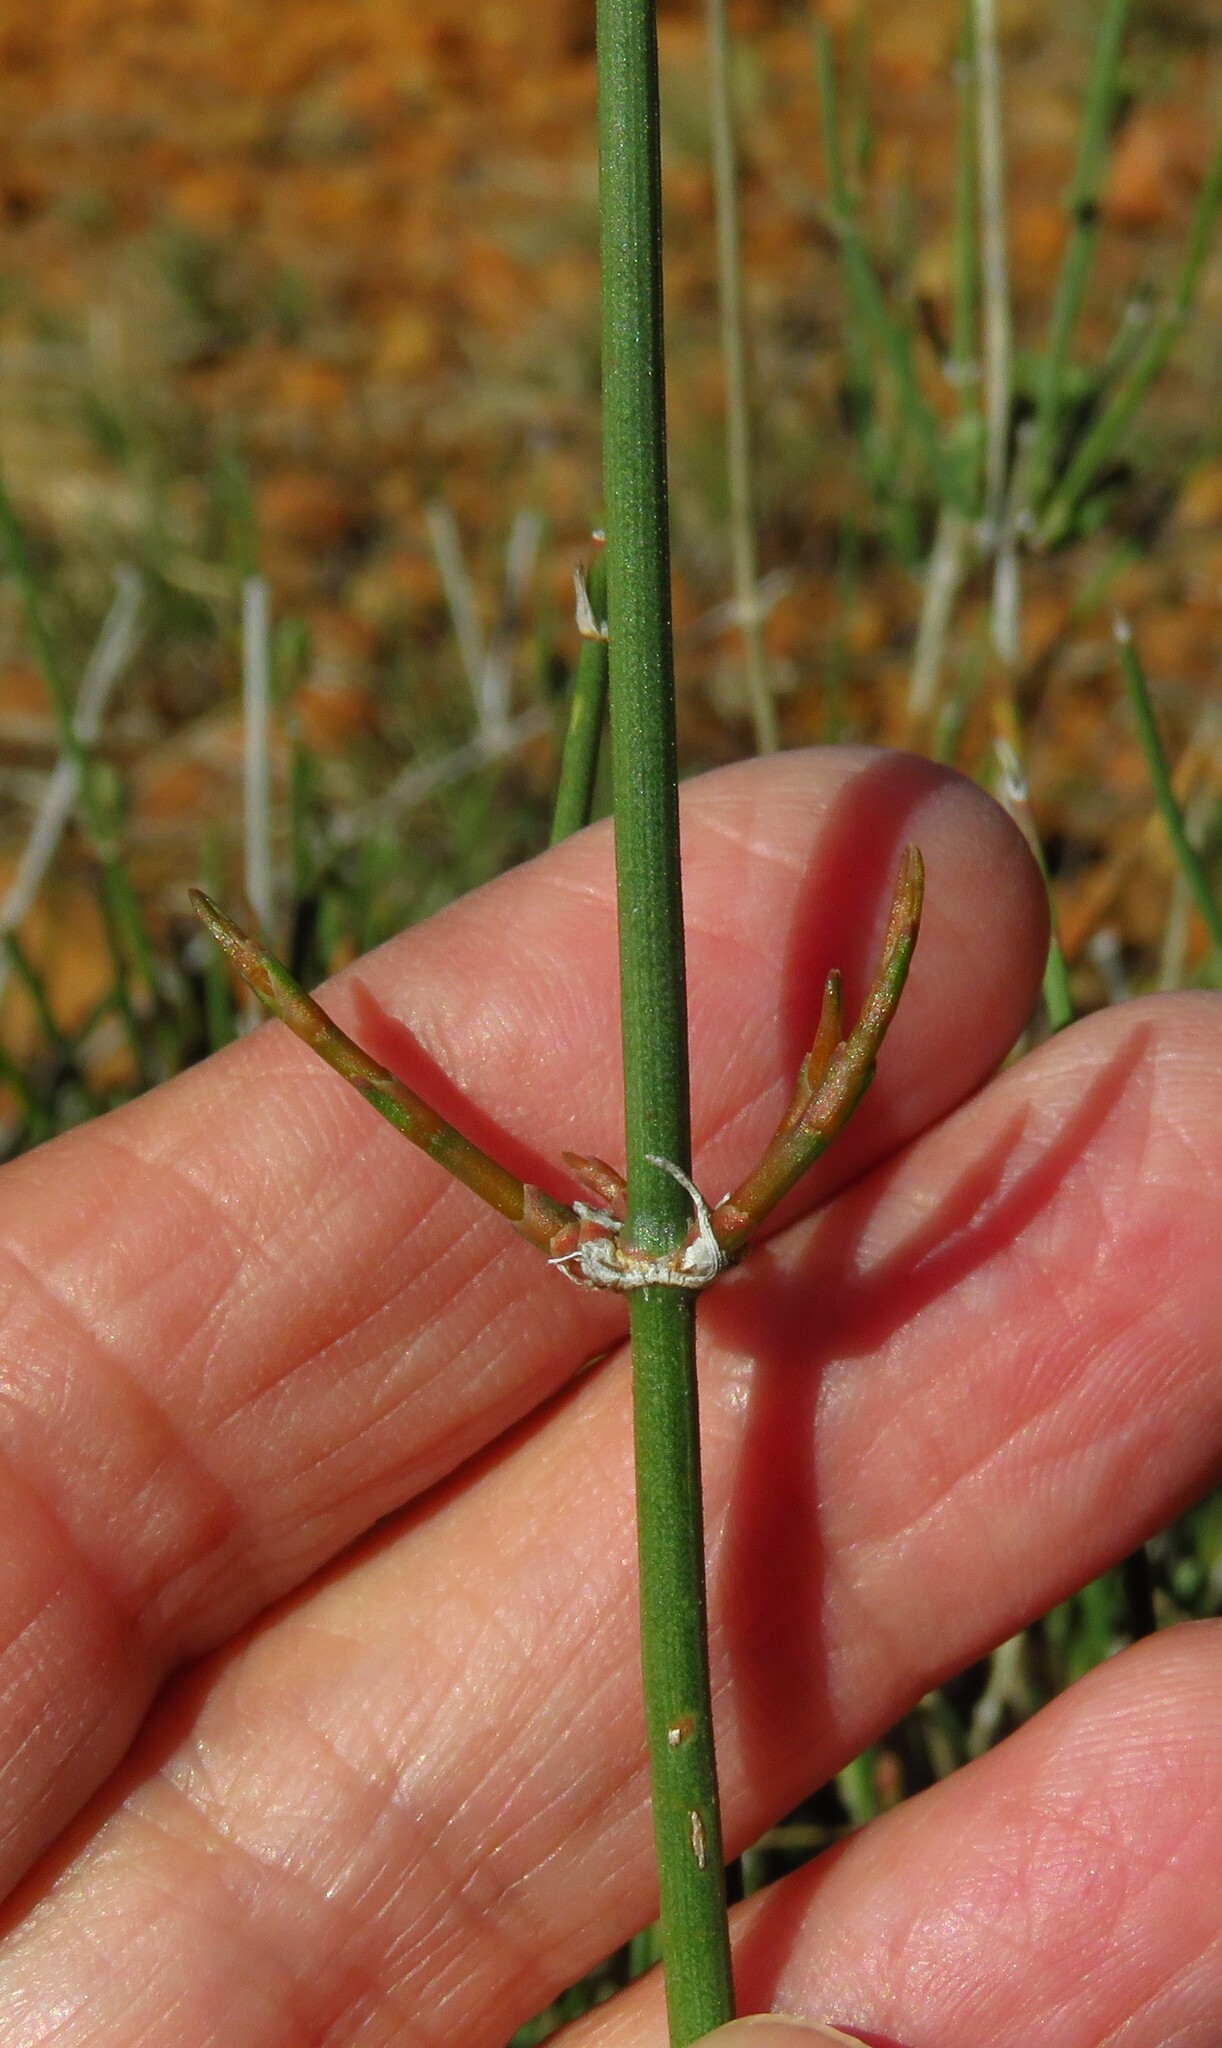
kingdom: Plantae
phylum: Tracheophyta
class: Gnetopsida
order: Ephedrales
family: Ephedraceae
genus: Ephedra
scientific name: Ephedra antisyphilitica
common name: Clipweed
